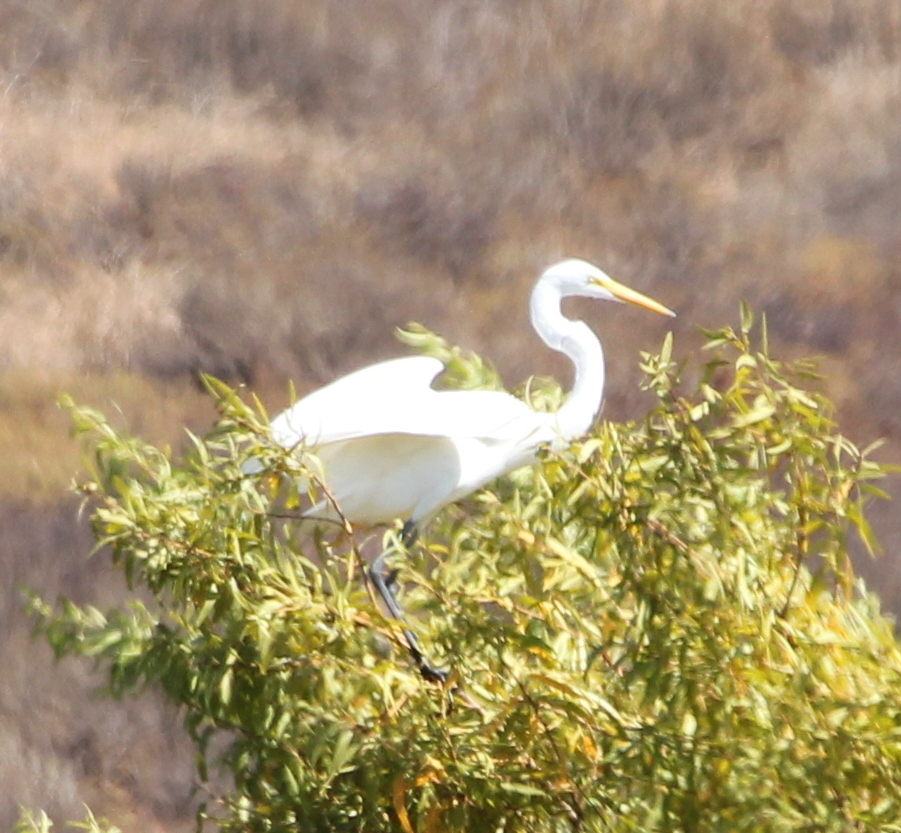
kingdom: Animalia
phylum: Chordata
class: Aves
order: Pelecaniformes
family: Ardeidae
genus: Ardea
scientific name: Ardea alba
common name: Great egret
